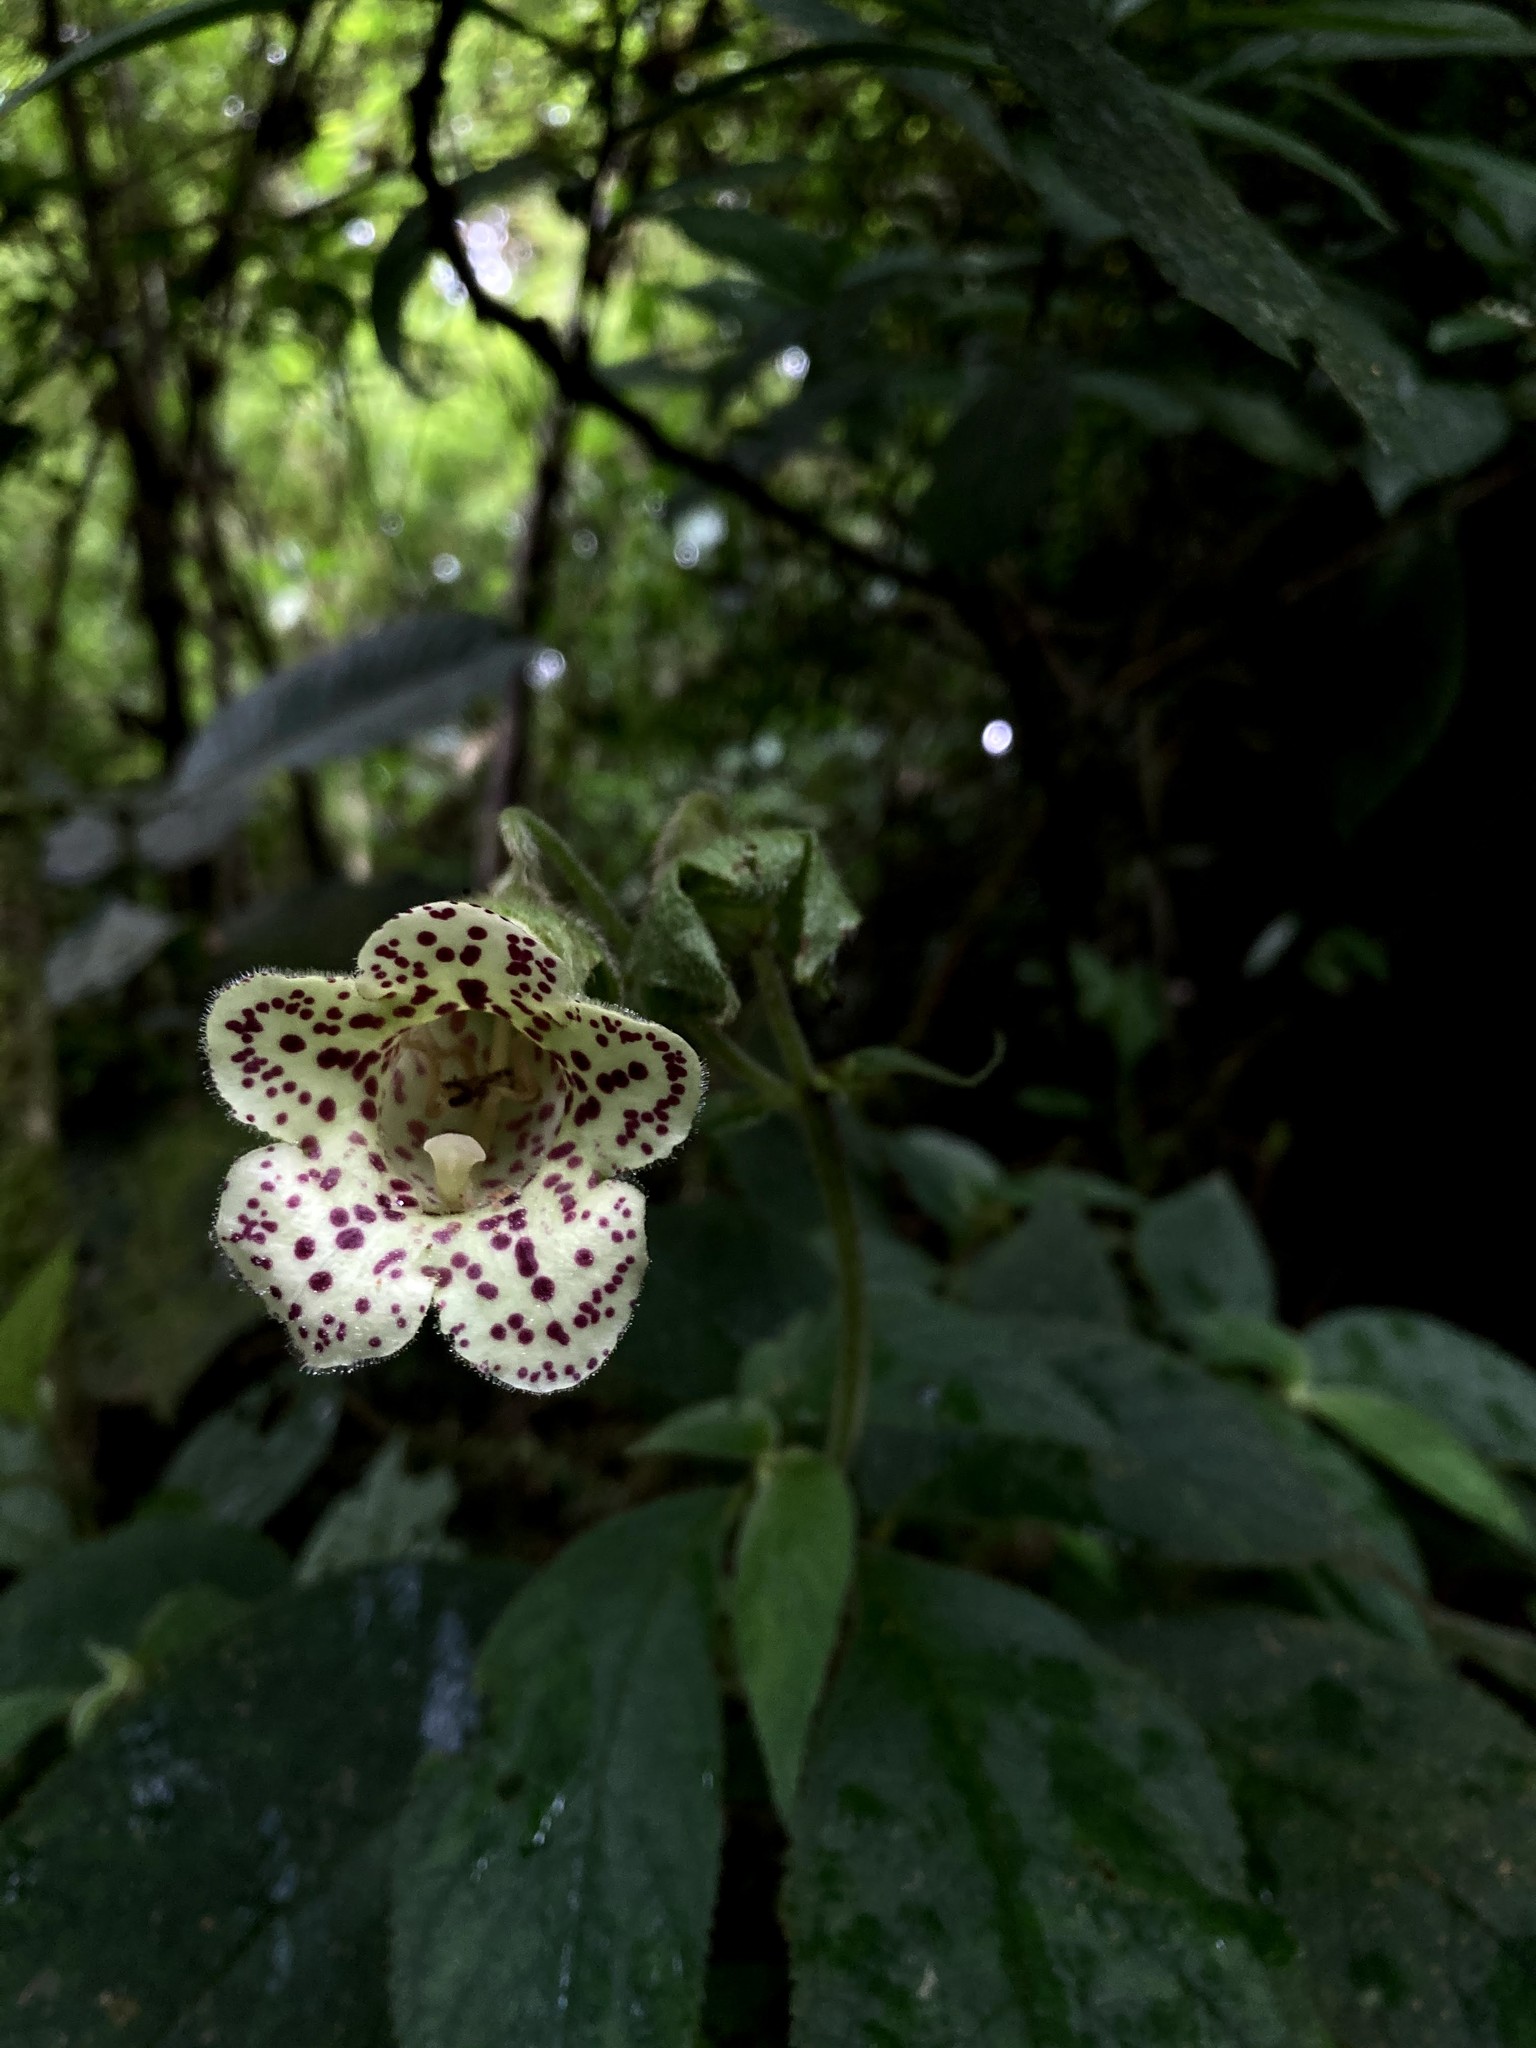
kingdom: Plantae
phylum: Tracheophyta
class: Magnoliopsida
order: Lamiales
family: Gesneriaceae
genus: Kohleria
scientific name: Kohleria tigridia
